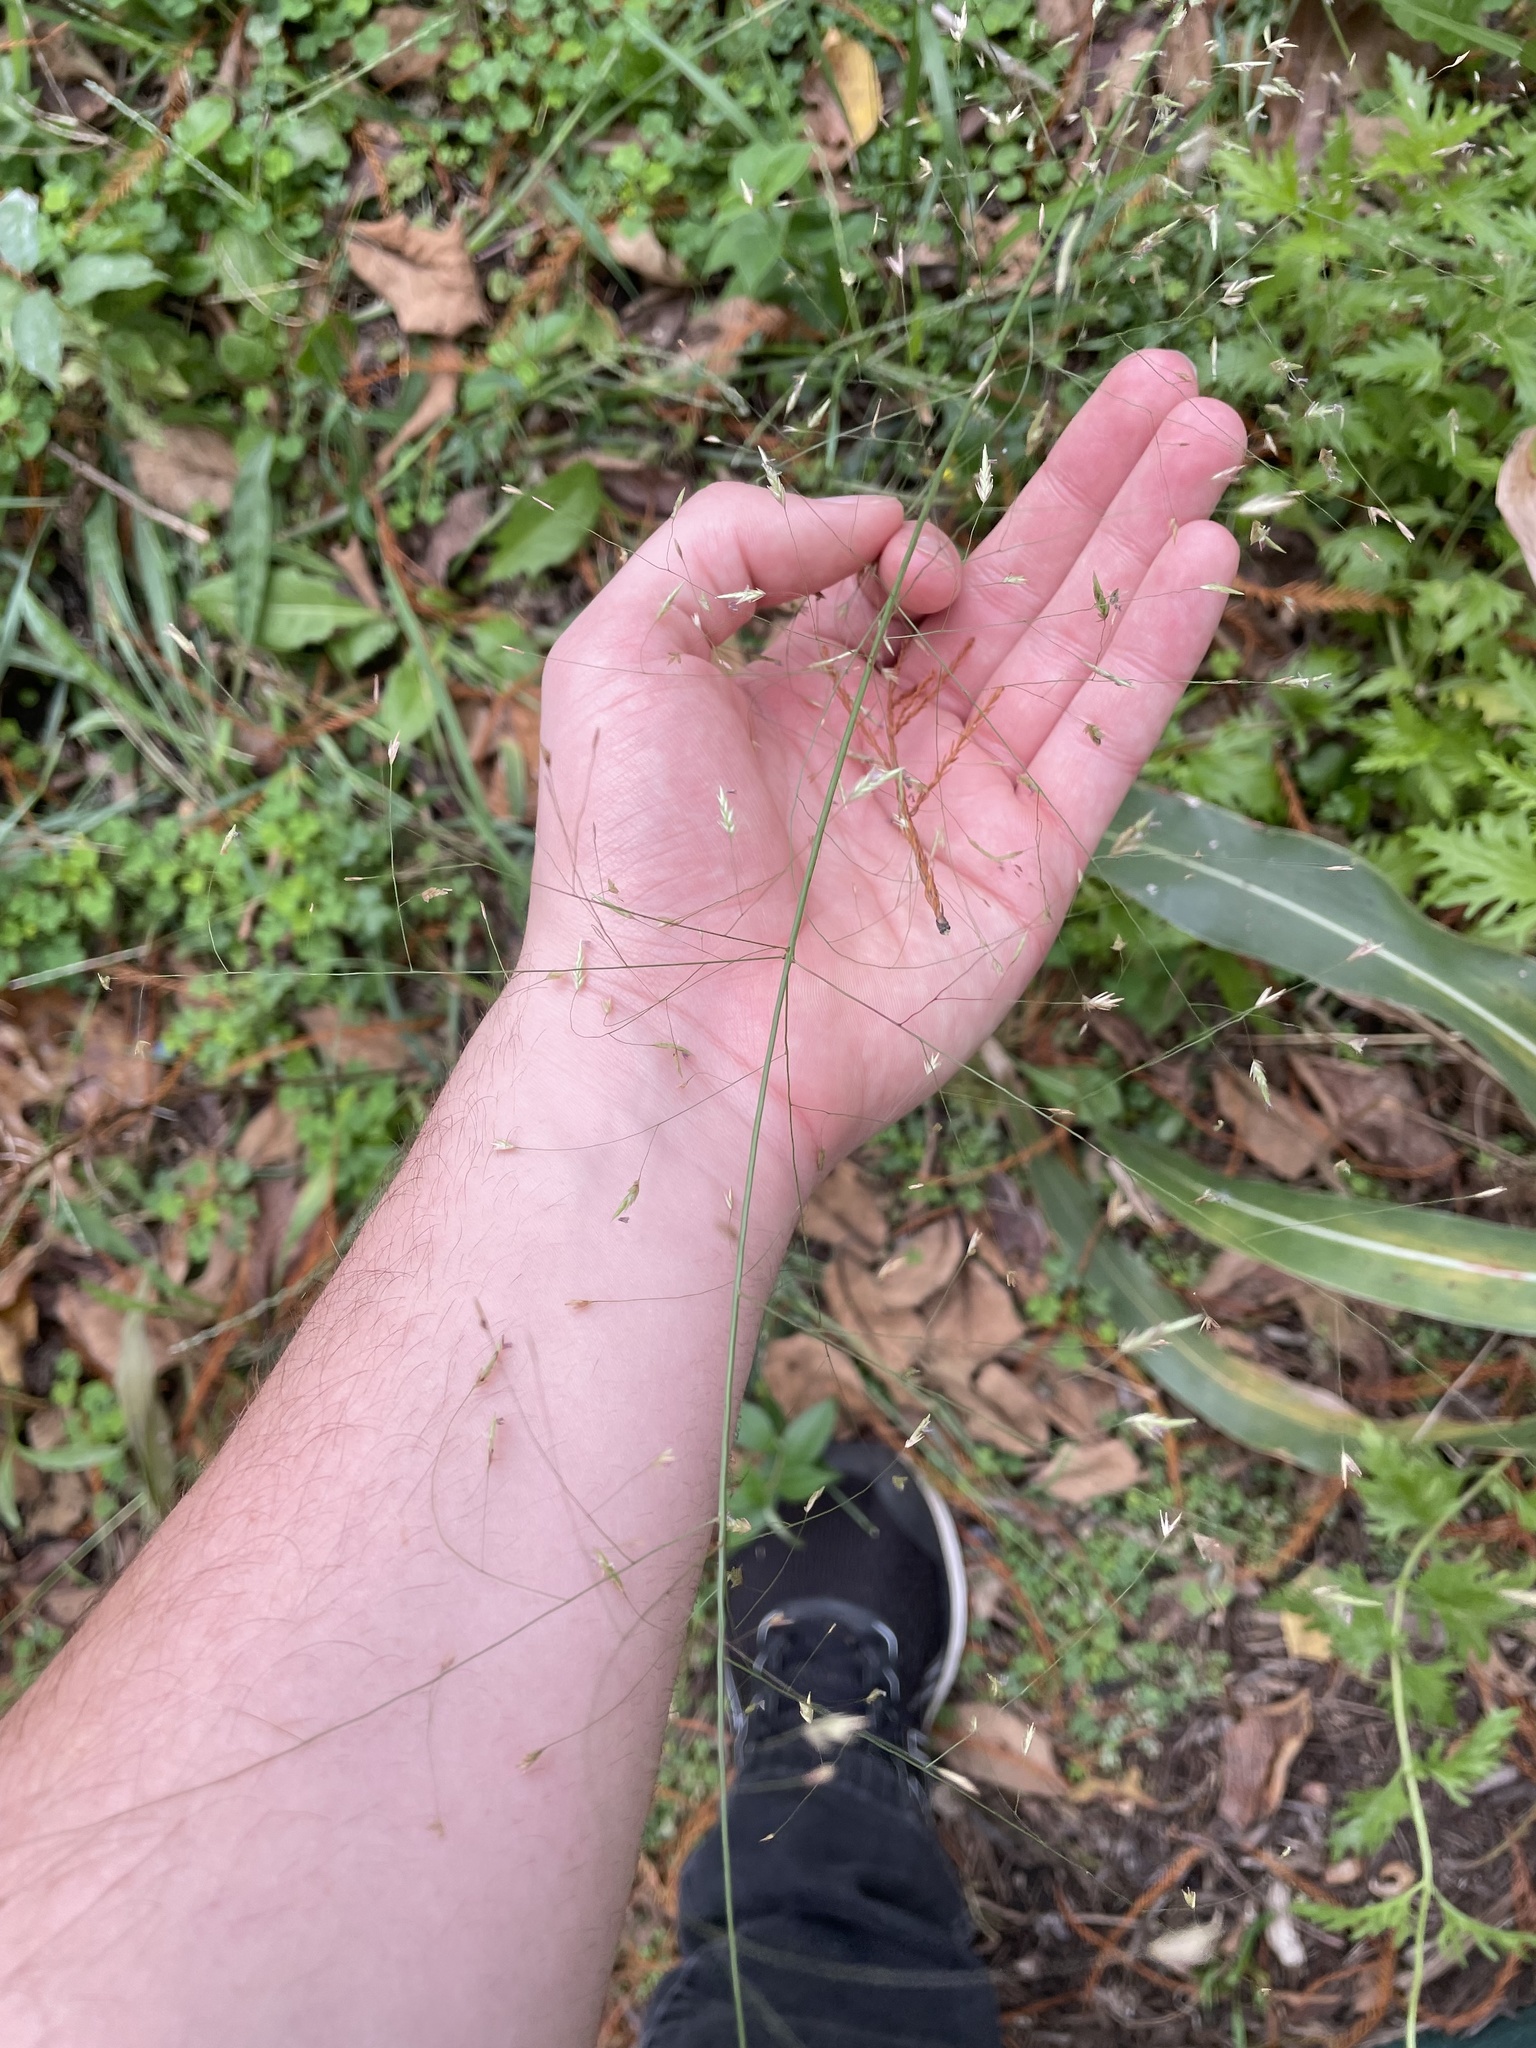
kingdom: Plantae
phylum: Tracheophyta
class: Liliopsida
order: Poales
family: Poaceae
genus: Eragrostis
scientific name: Eragrostis trichodes
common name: Sand love grass
